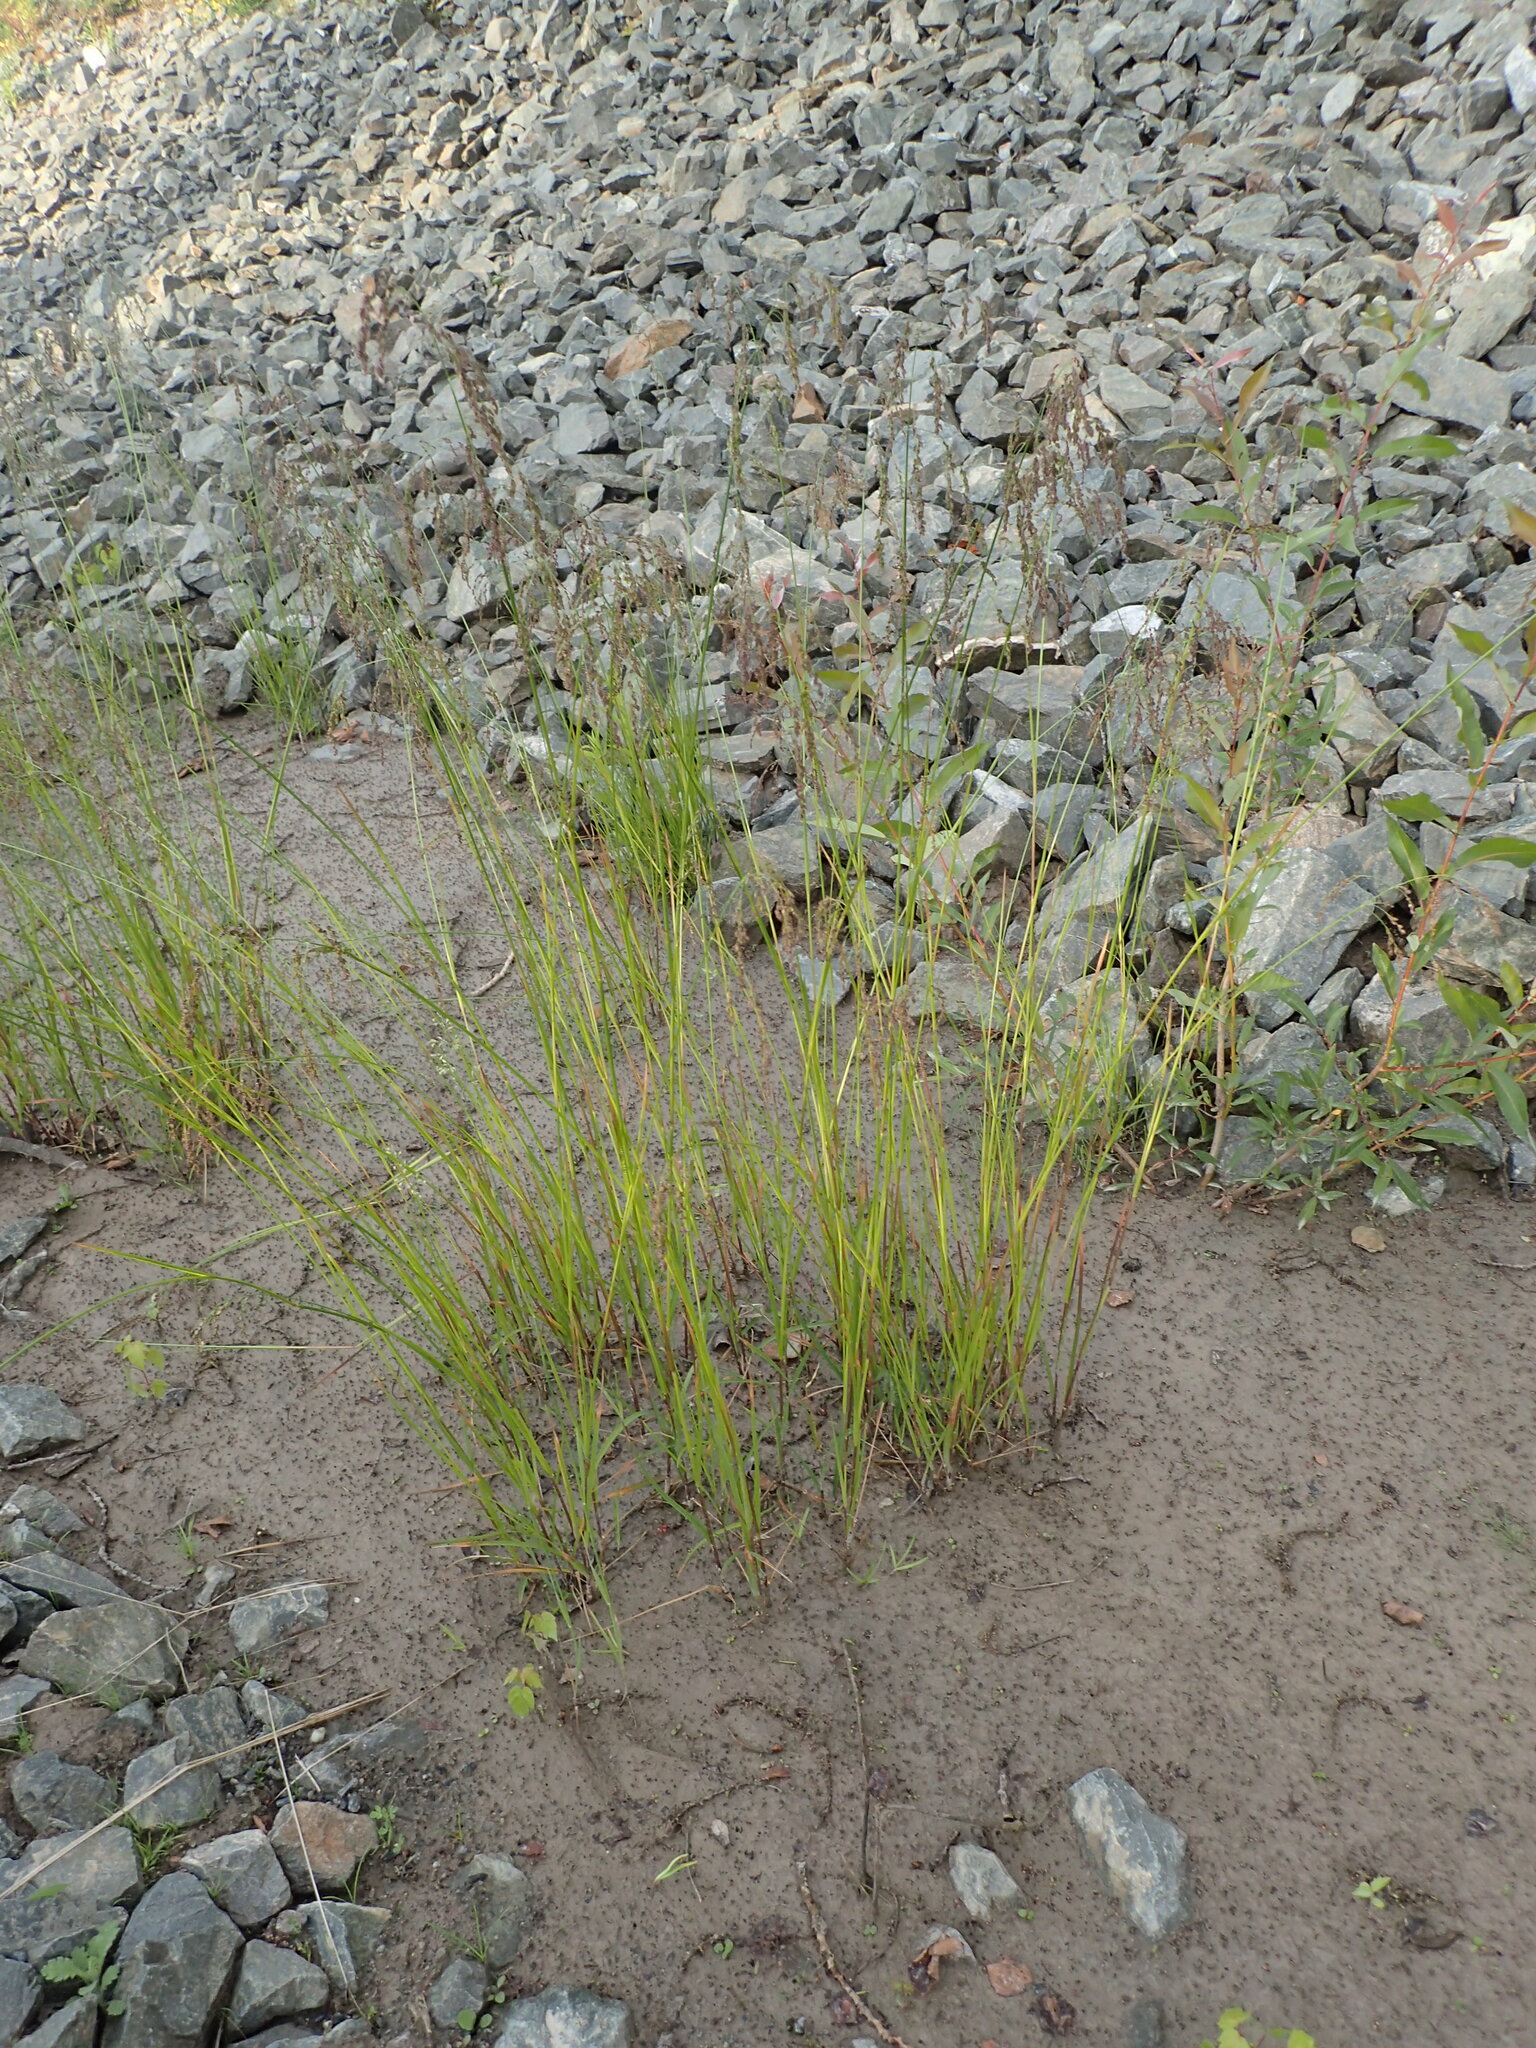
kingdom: Plantae
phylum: Tracheophyta
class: Liliopsida
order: Poales
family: Poaceae
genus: Glyceria
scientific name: Glyceria striata
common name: Fowl manna grass
